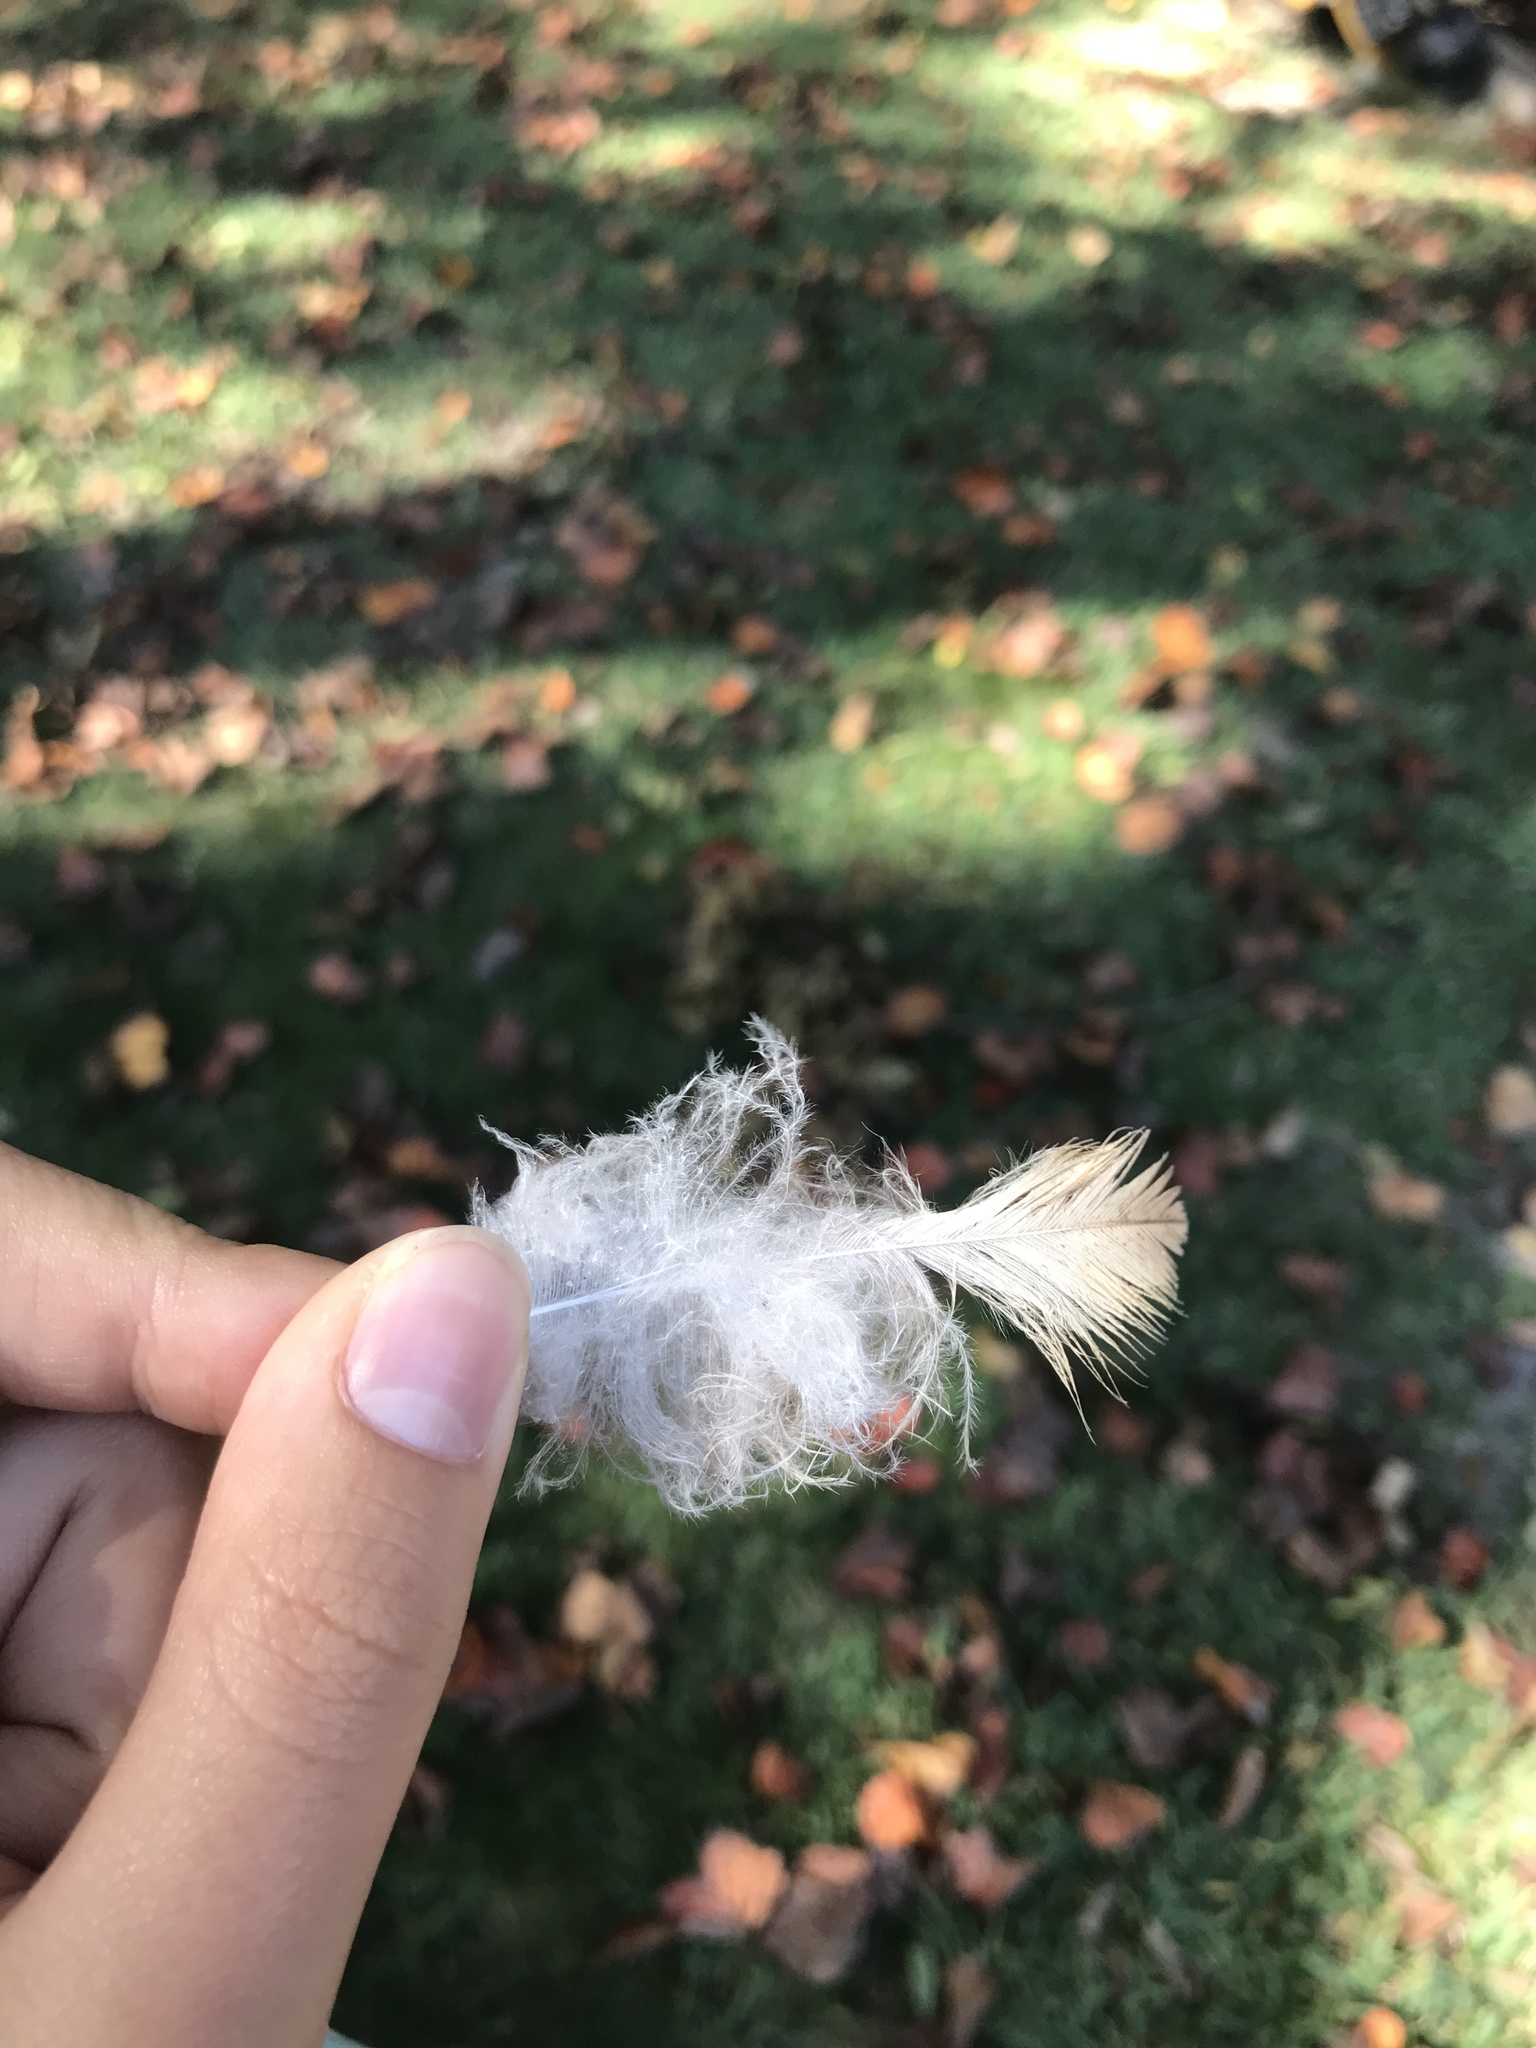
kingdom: Animalia
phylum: Chordata
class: Aves
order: Accipitriformes
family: Accipitridae
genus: Buteo
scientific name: Buteo jamaicensis
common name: Red-tailed hawk
